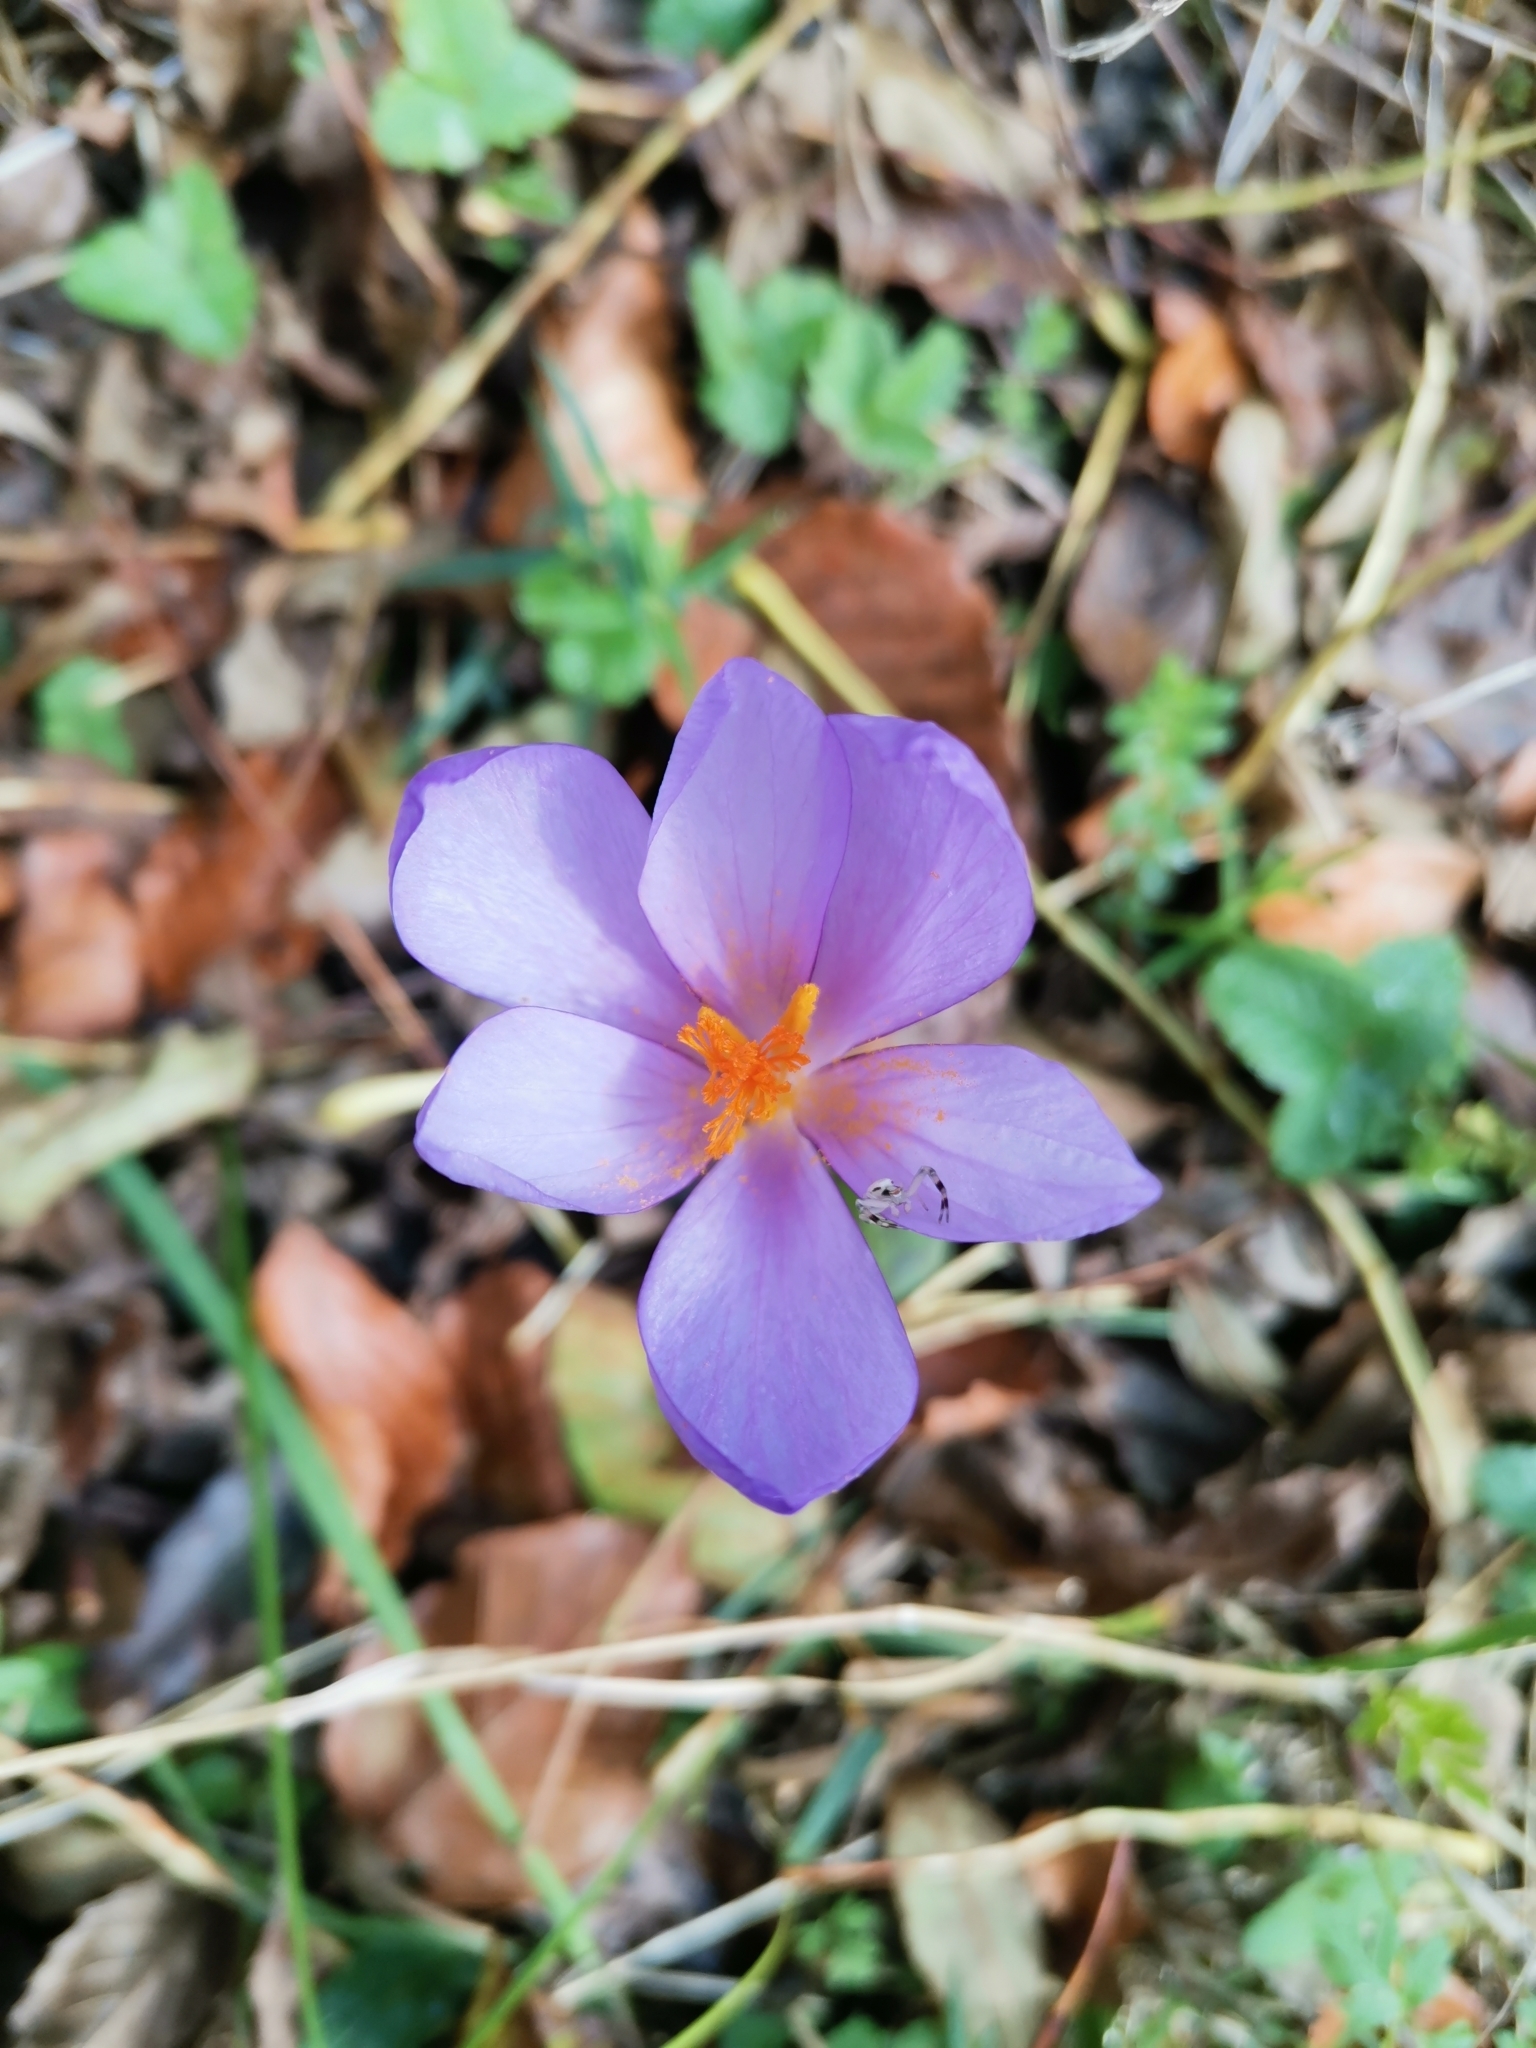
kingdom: Plantae
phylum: Tracheophyta
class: Liliopsida
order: Asparagales
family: Iridaceae
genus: Crocus
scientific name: Crocus nudiflorus
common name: Autumn crocus
